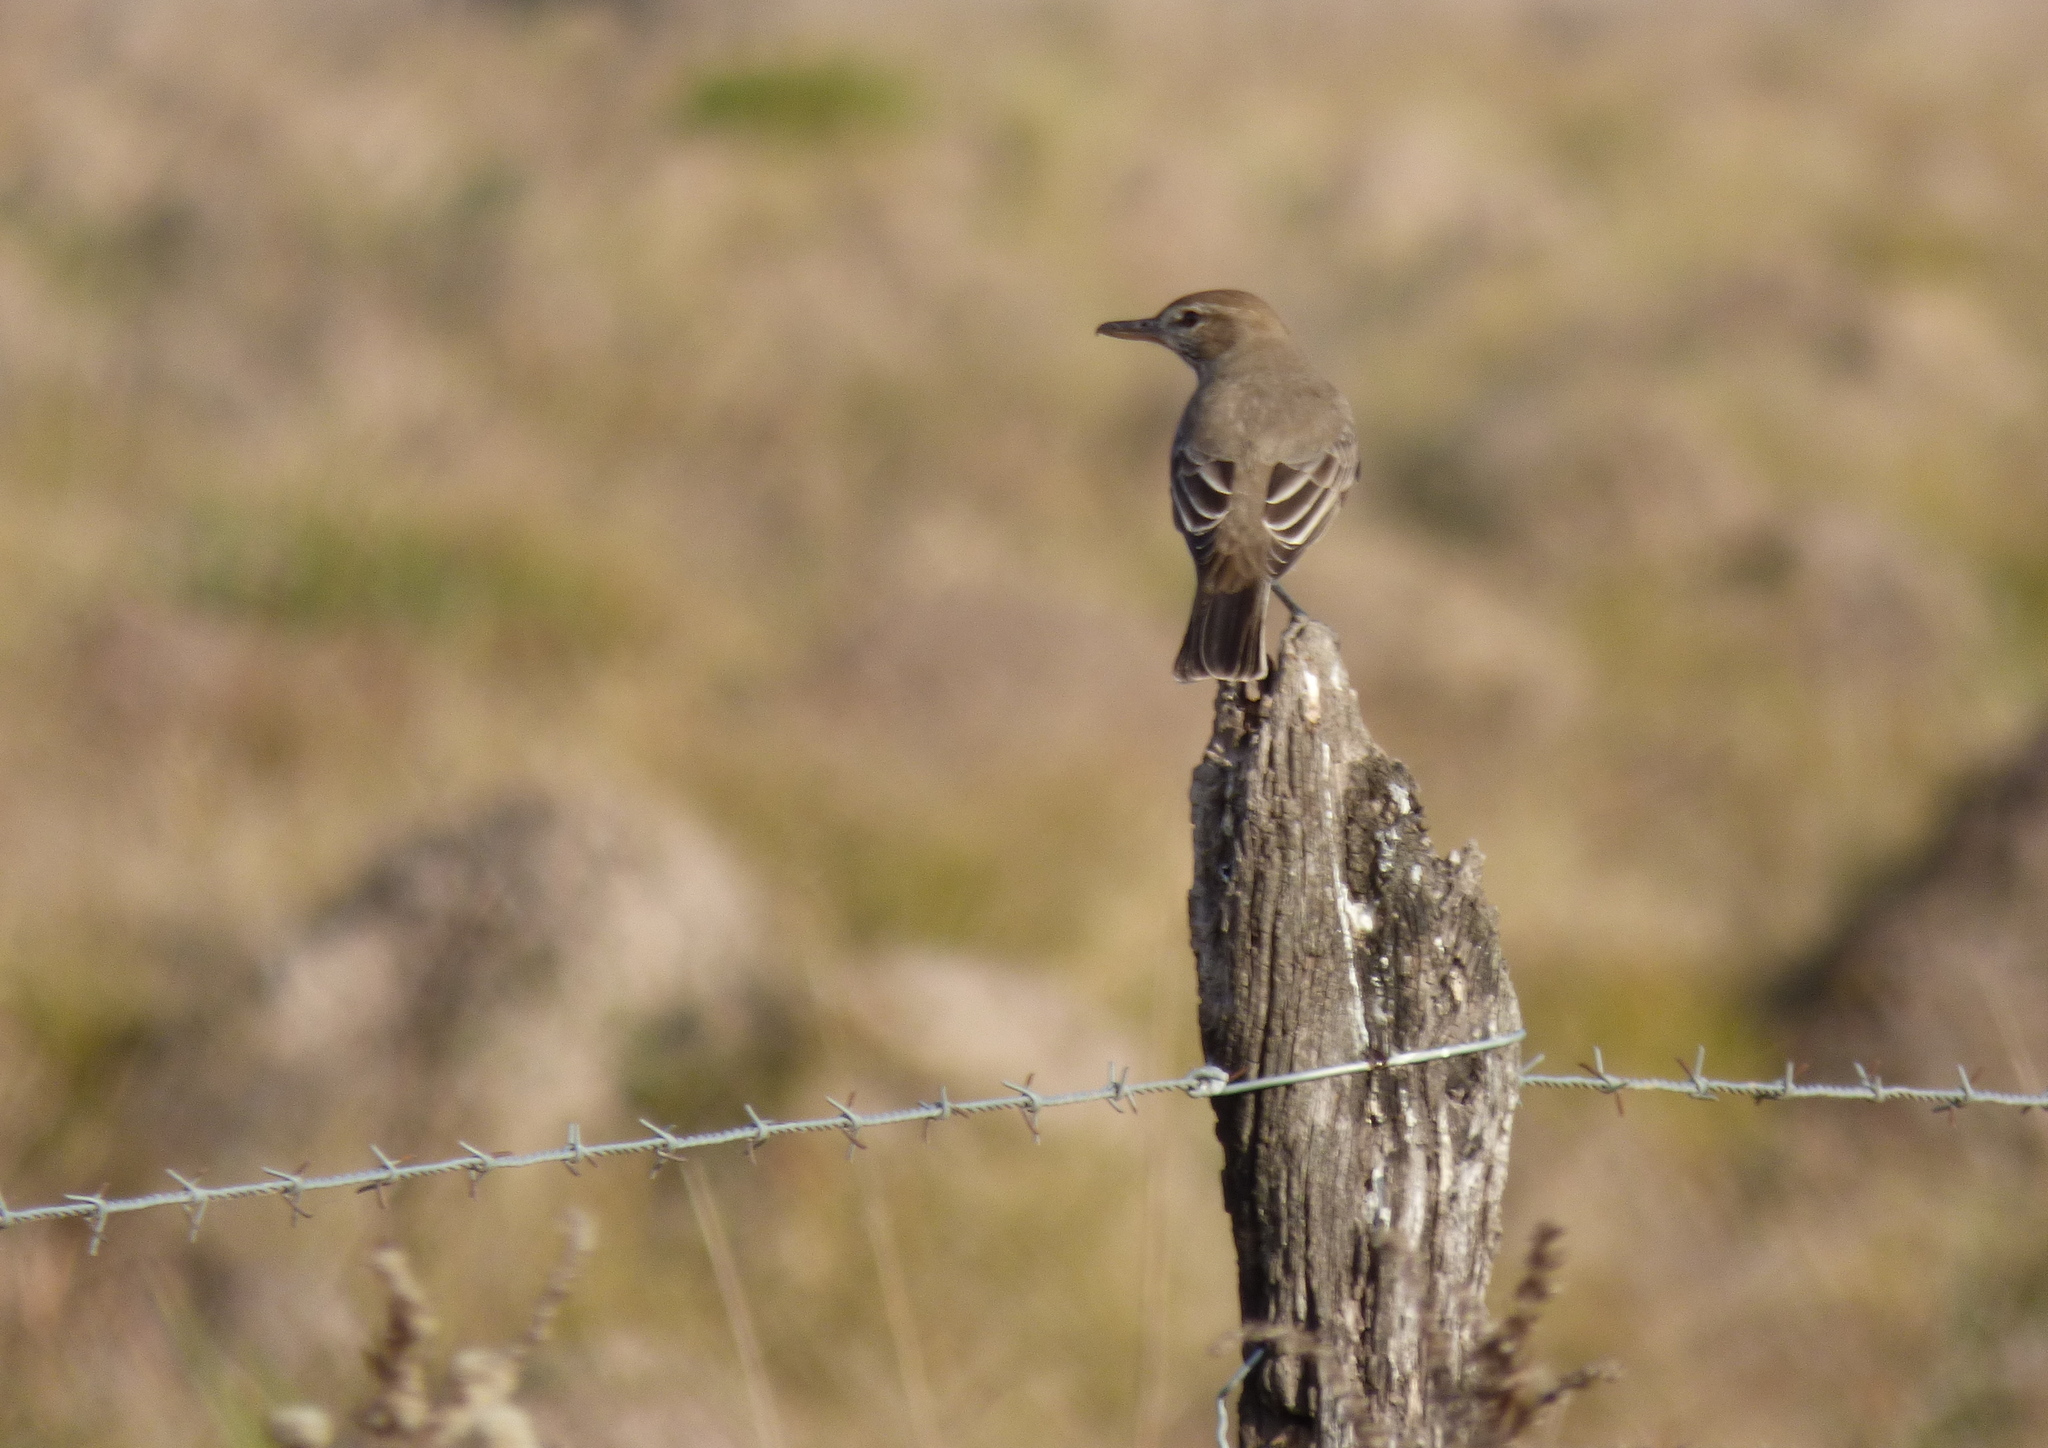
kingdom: Animalia
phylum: Chordata
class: Aves
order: Passeriformes
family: Tyrannidae
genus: Agriornis
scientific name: Agriornis micropterus
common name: Grey-bellied shrike-tyrant
